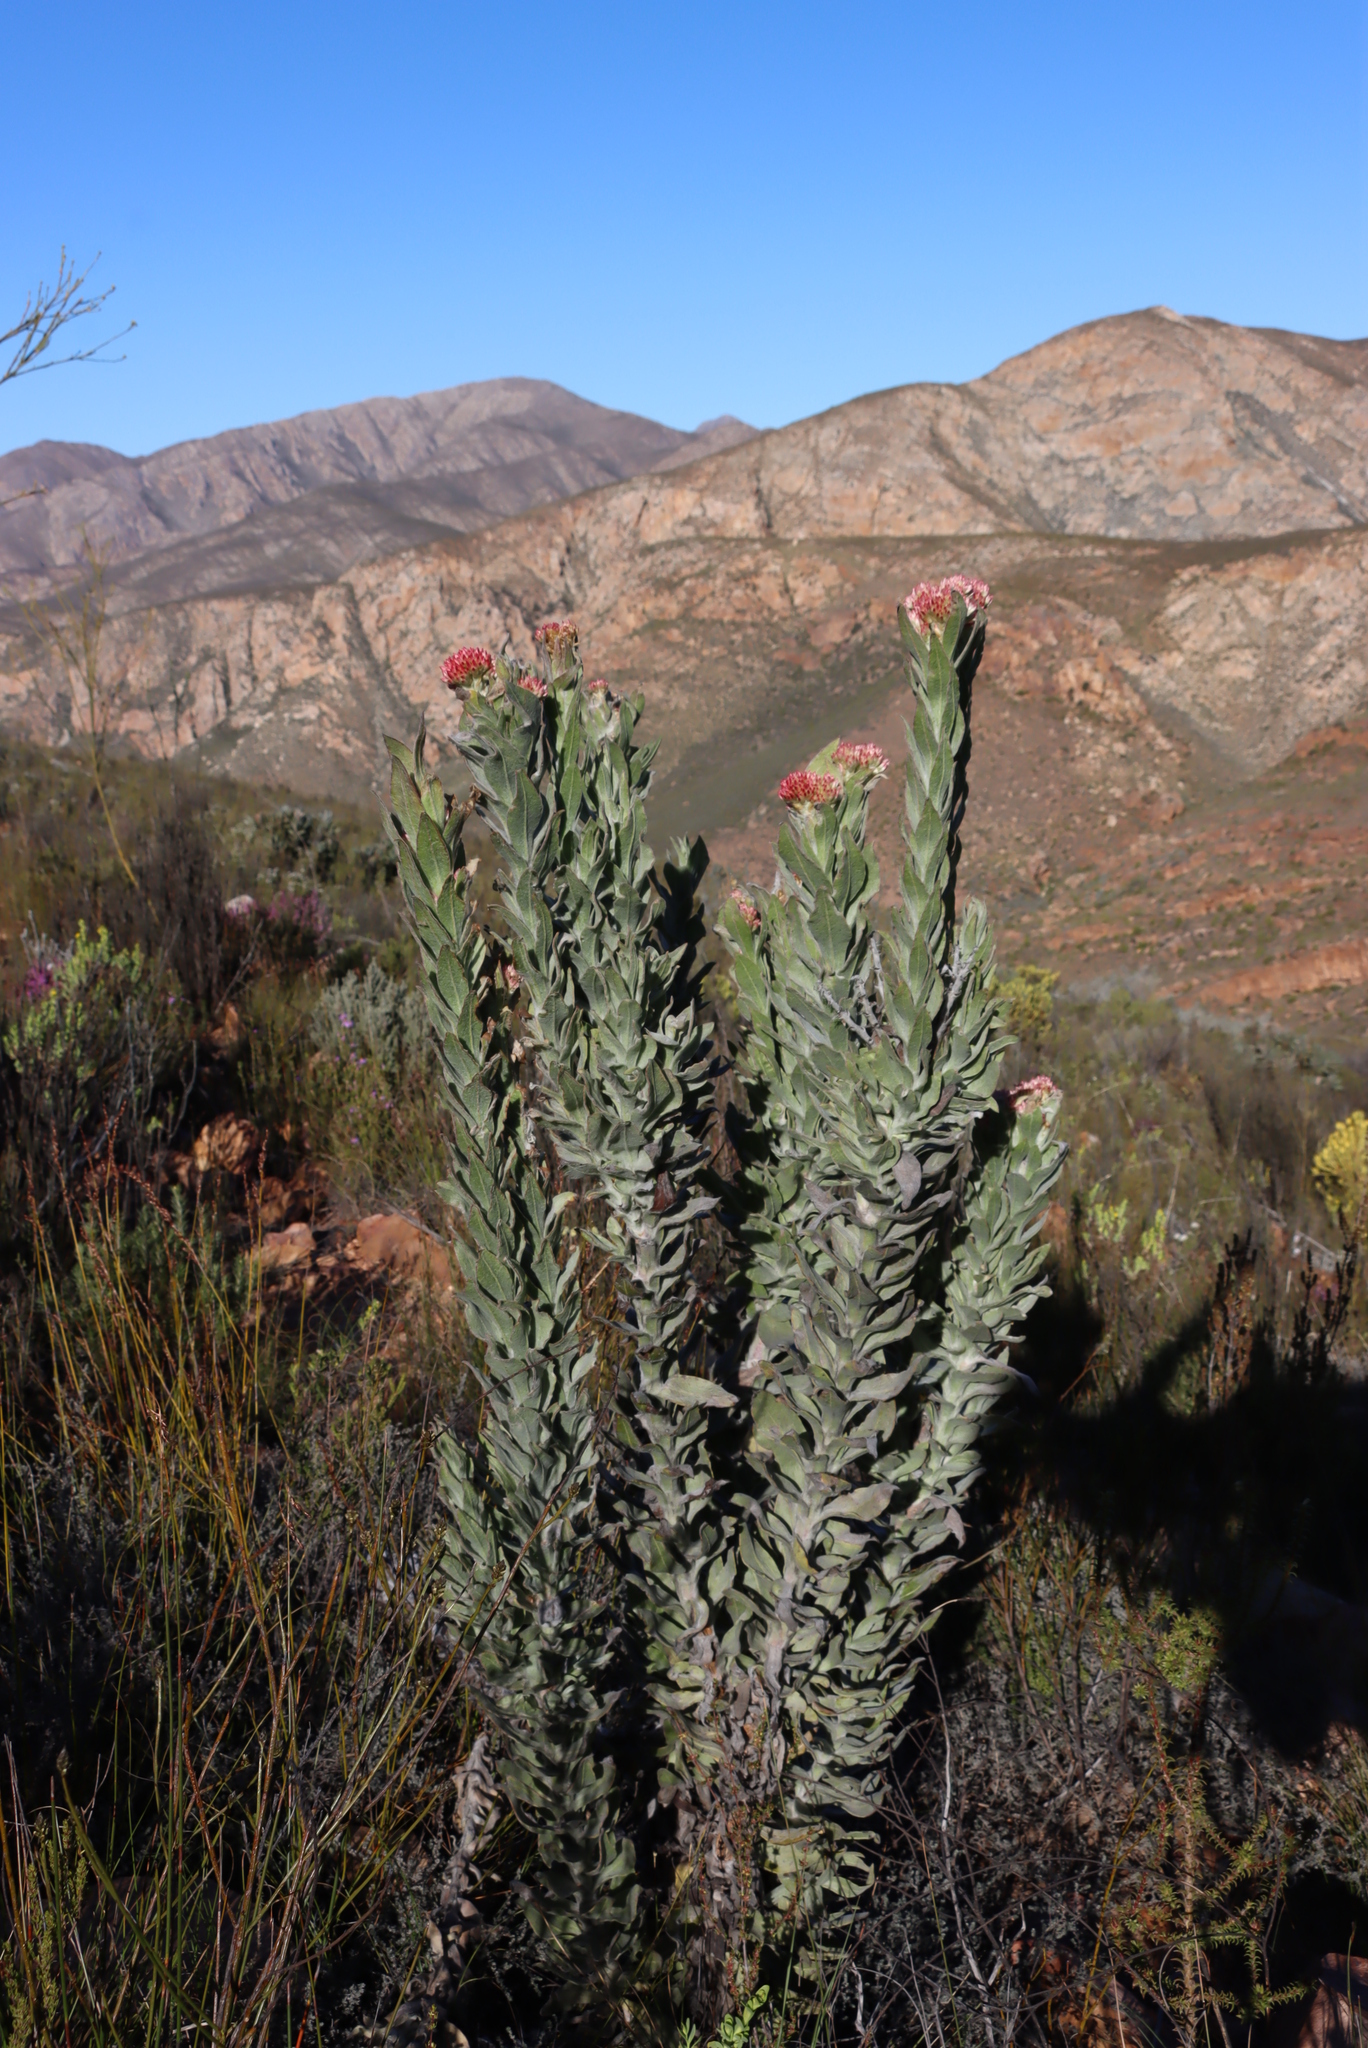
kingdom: Plantae
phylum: Tracheophyta
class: Magnoliopsida
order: Asterales
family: Asteraceae
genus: Syncarpha
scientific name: Syncarpha milleflora
